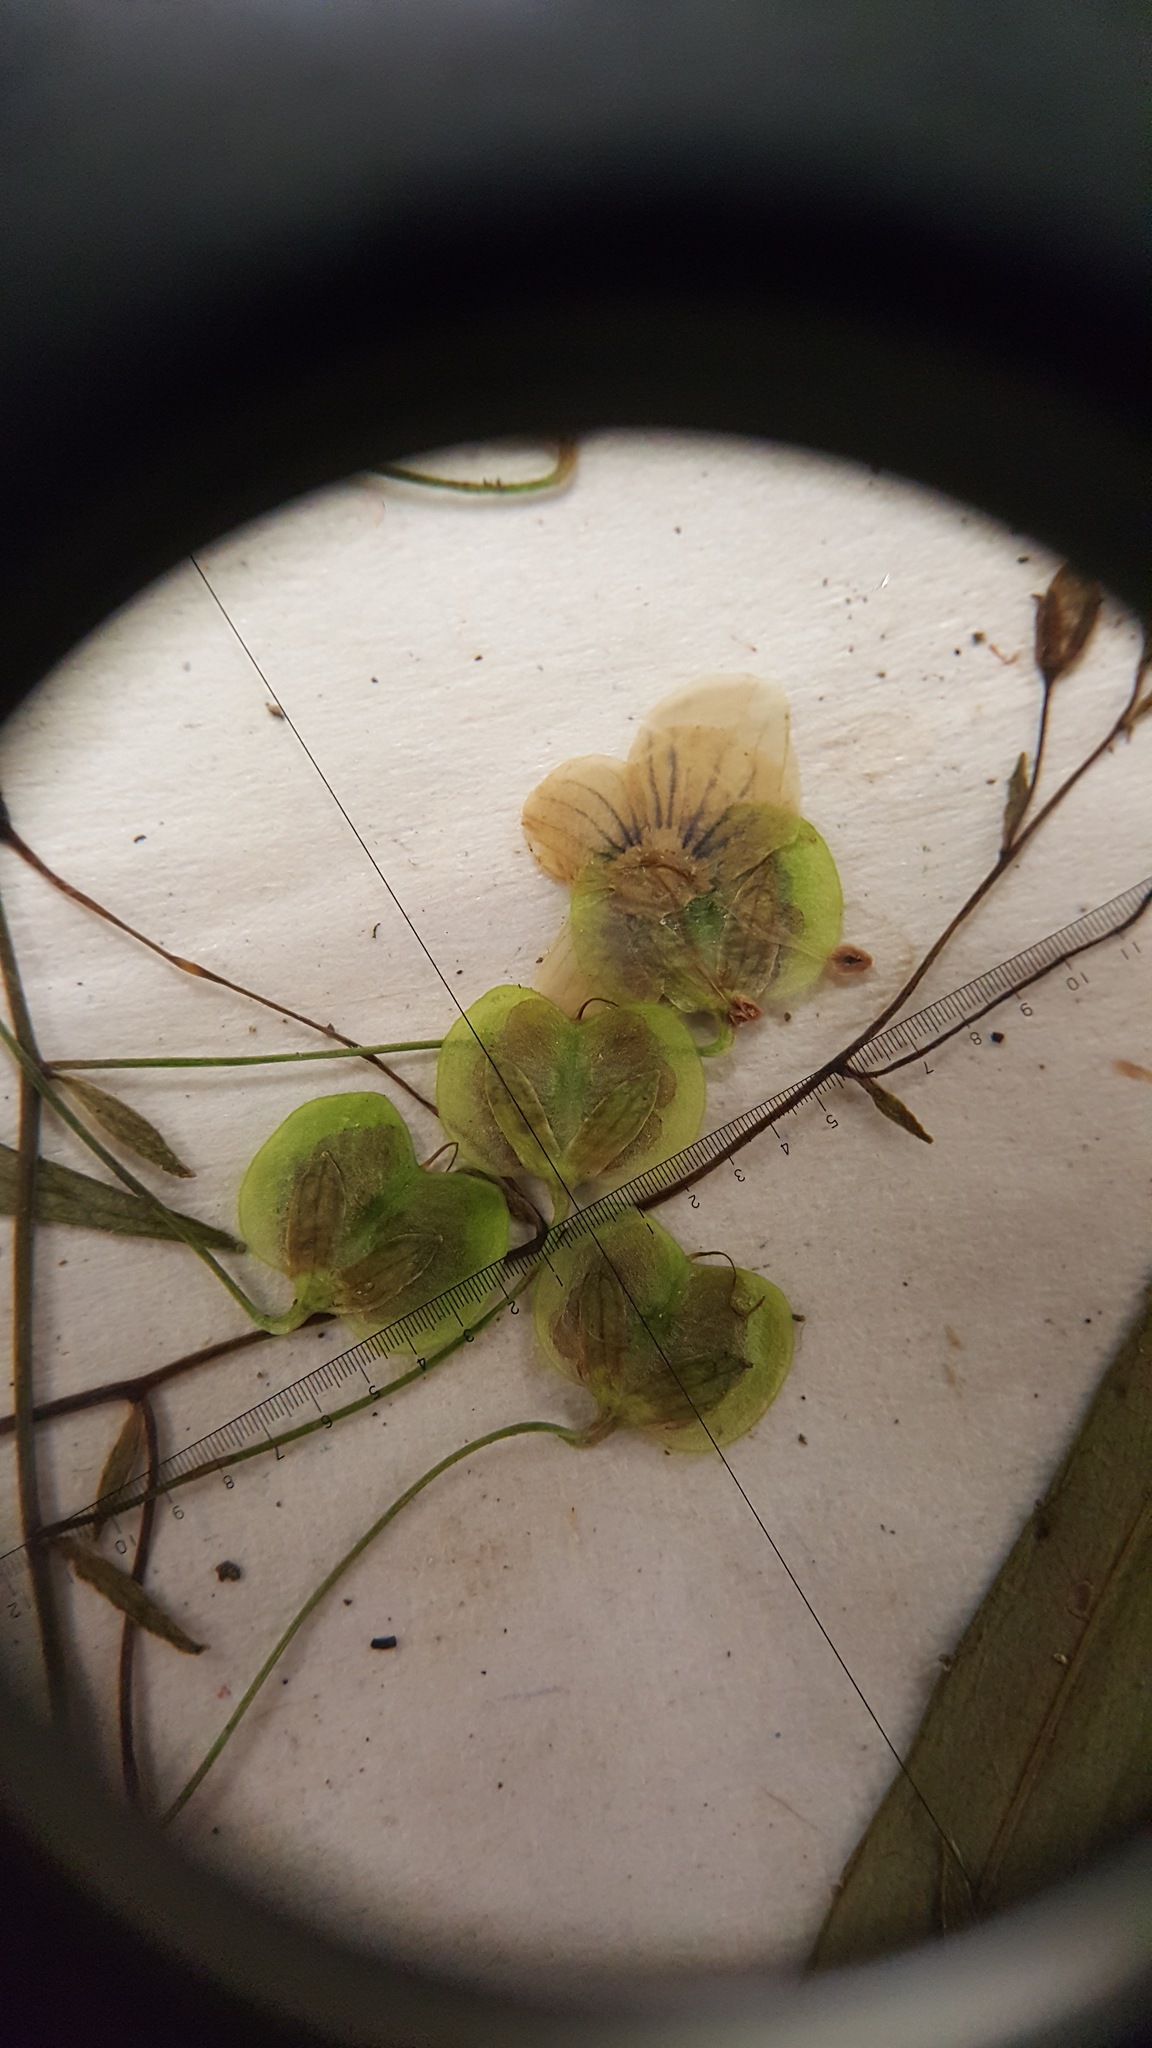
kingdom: Plantae
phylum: Tracheophyta
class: Magnoliopsida
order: Lamiales
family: Plantaginaceae
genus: Veronica
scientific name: Veronica scutellata
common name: Marsh speedwell
